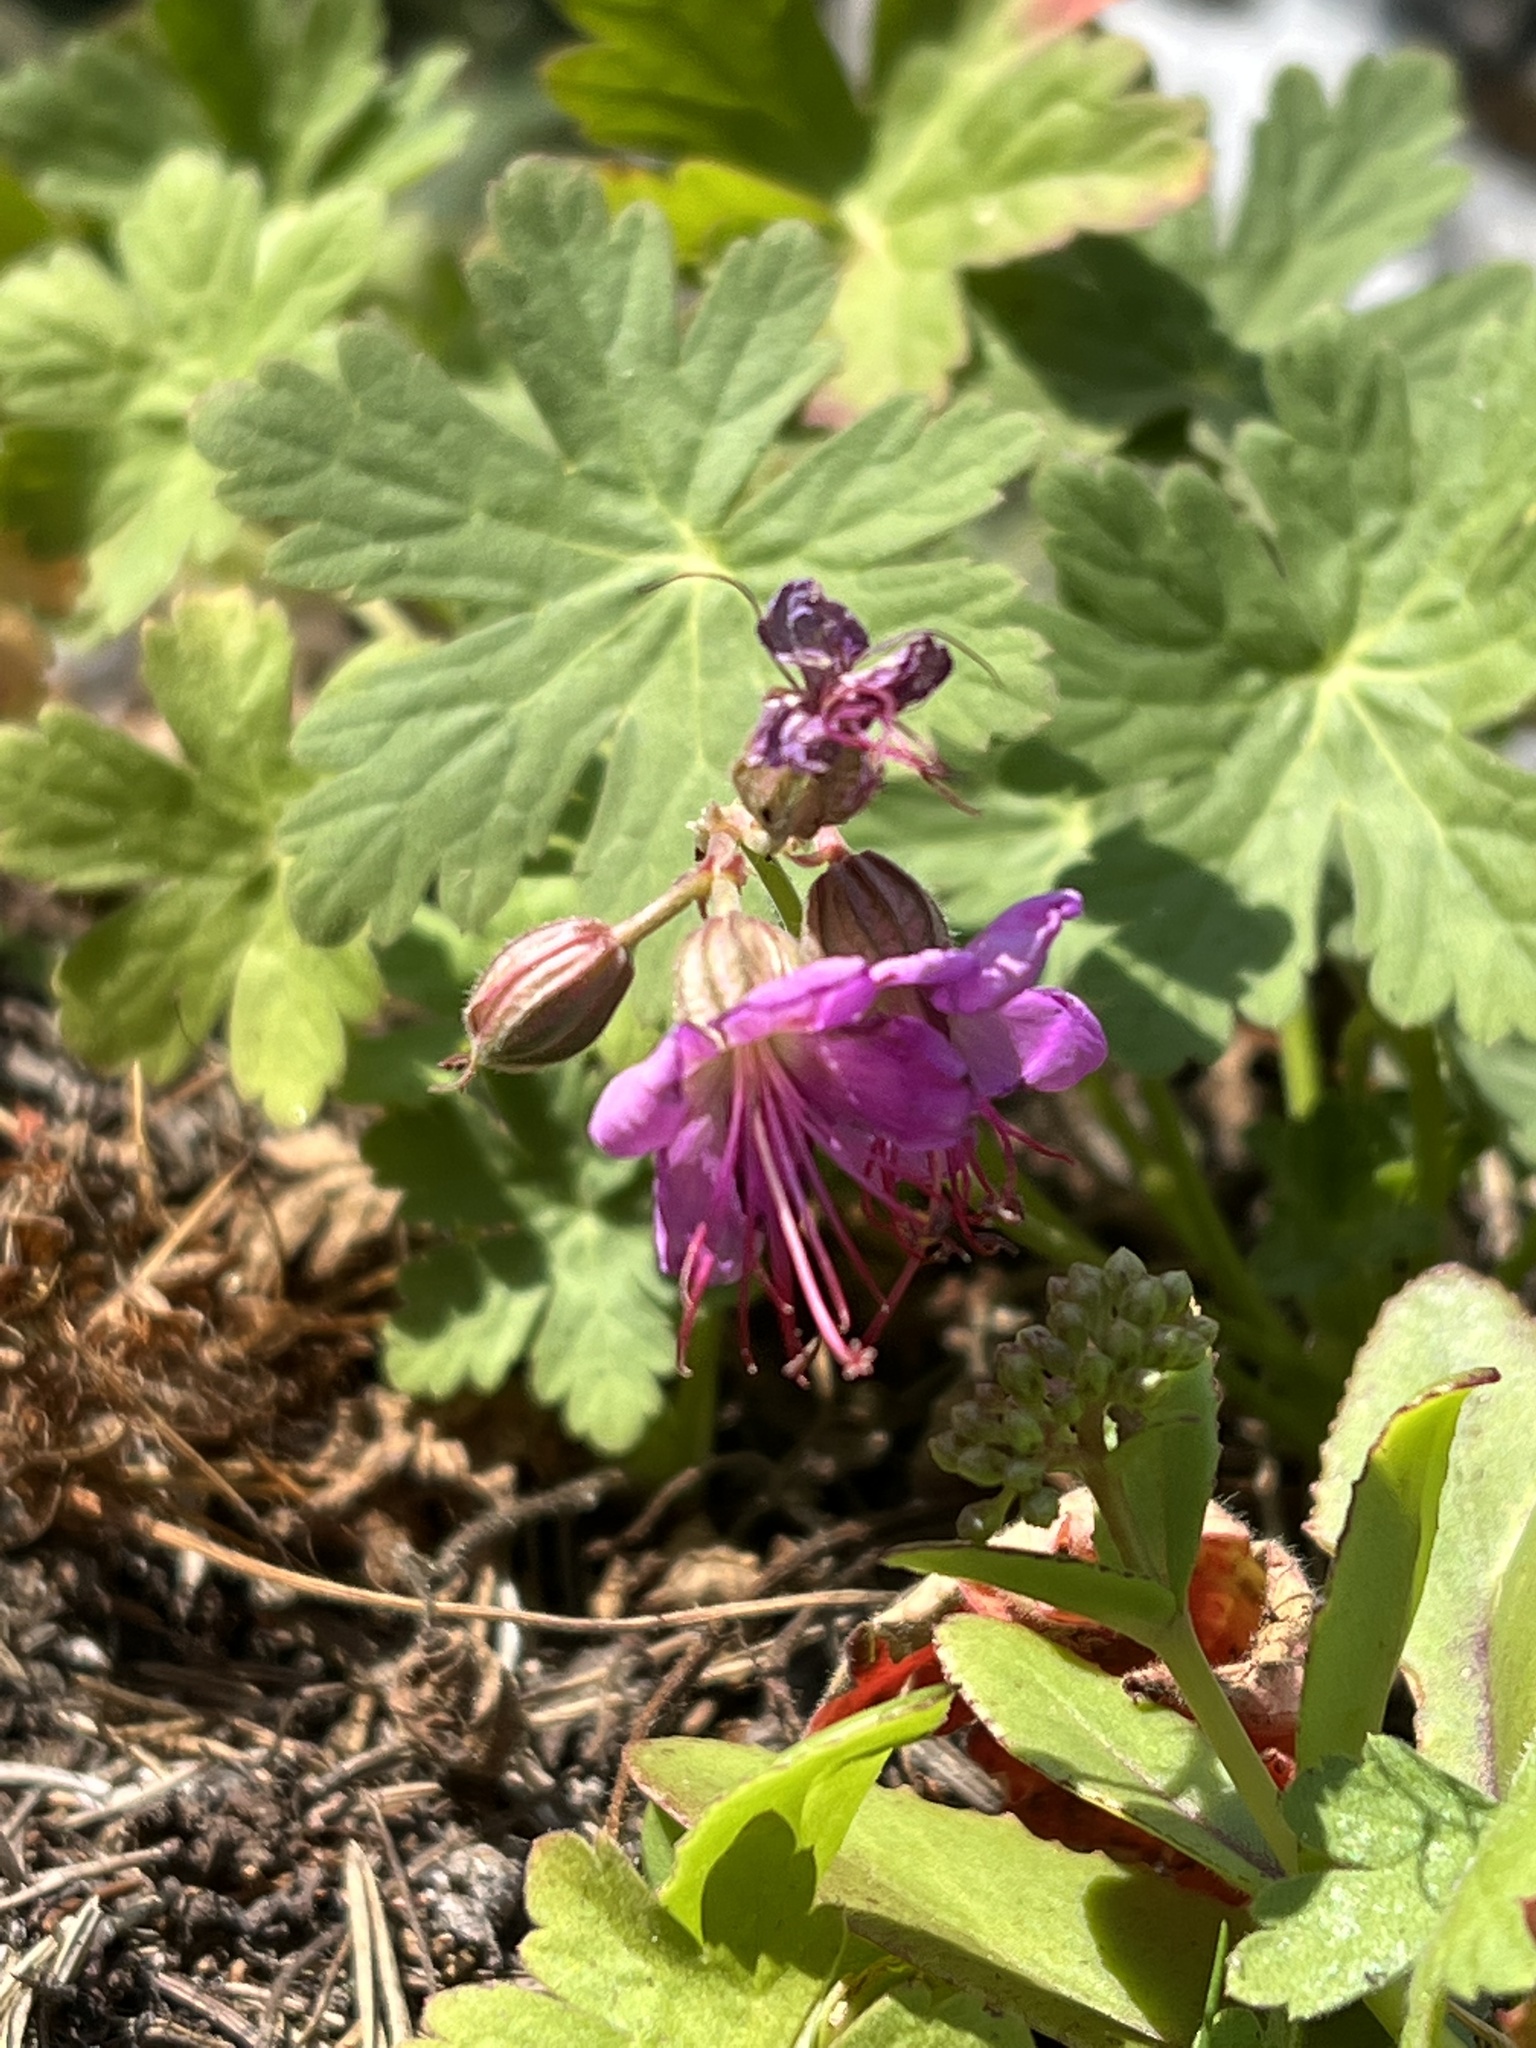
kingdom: Plantae
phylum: Tracheophyta
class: Magnoliopsida
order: Geraniales
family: Geraniaceae
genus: Geranium
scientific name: Geranium macrorrhizum
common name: Rock crane's-bill
